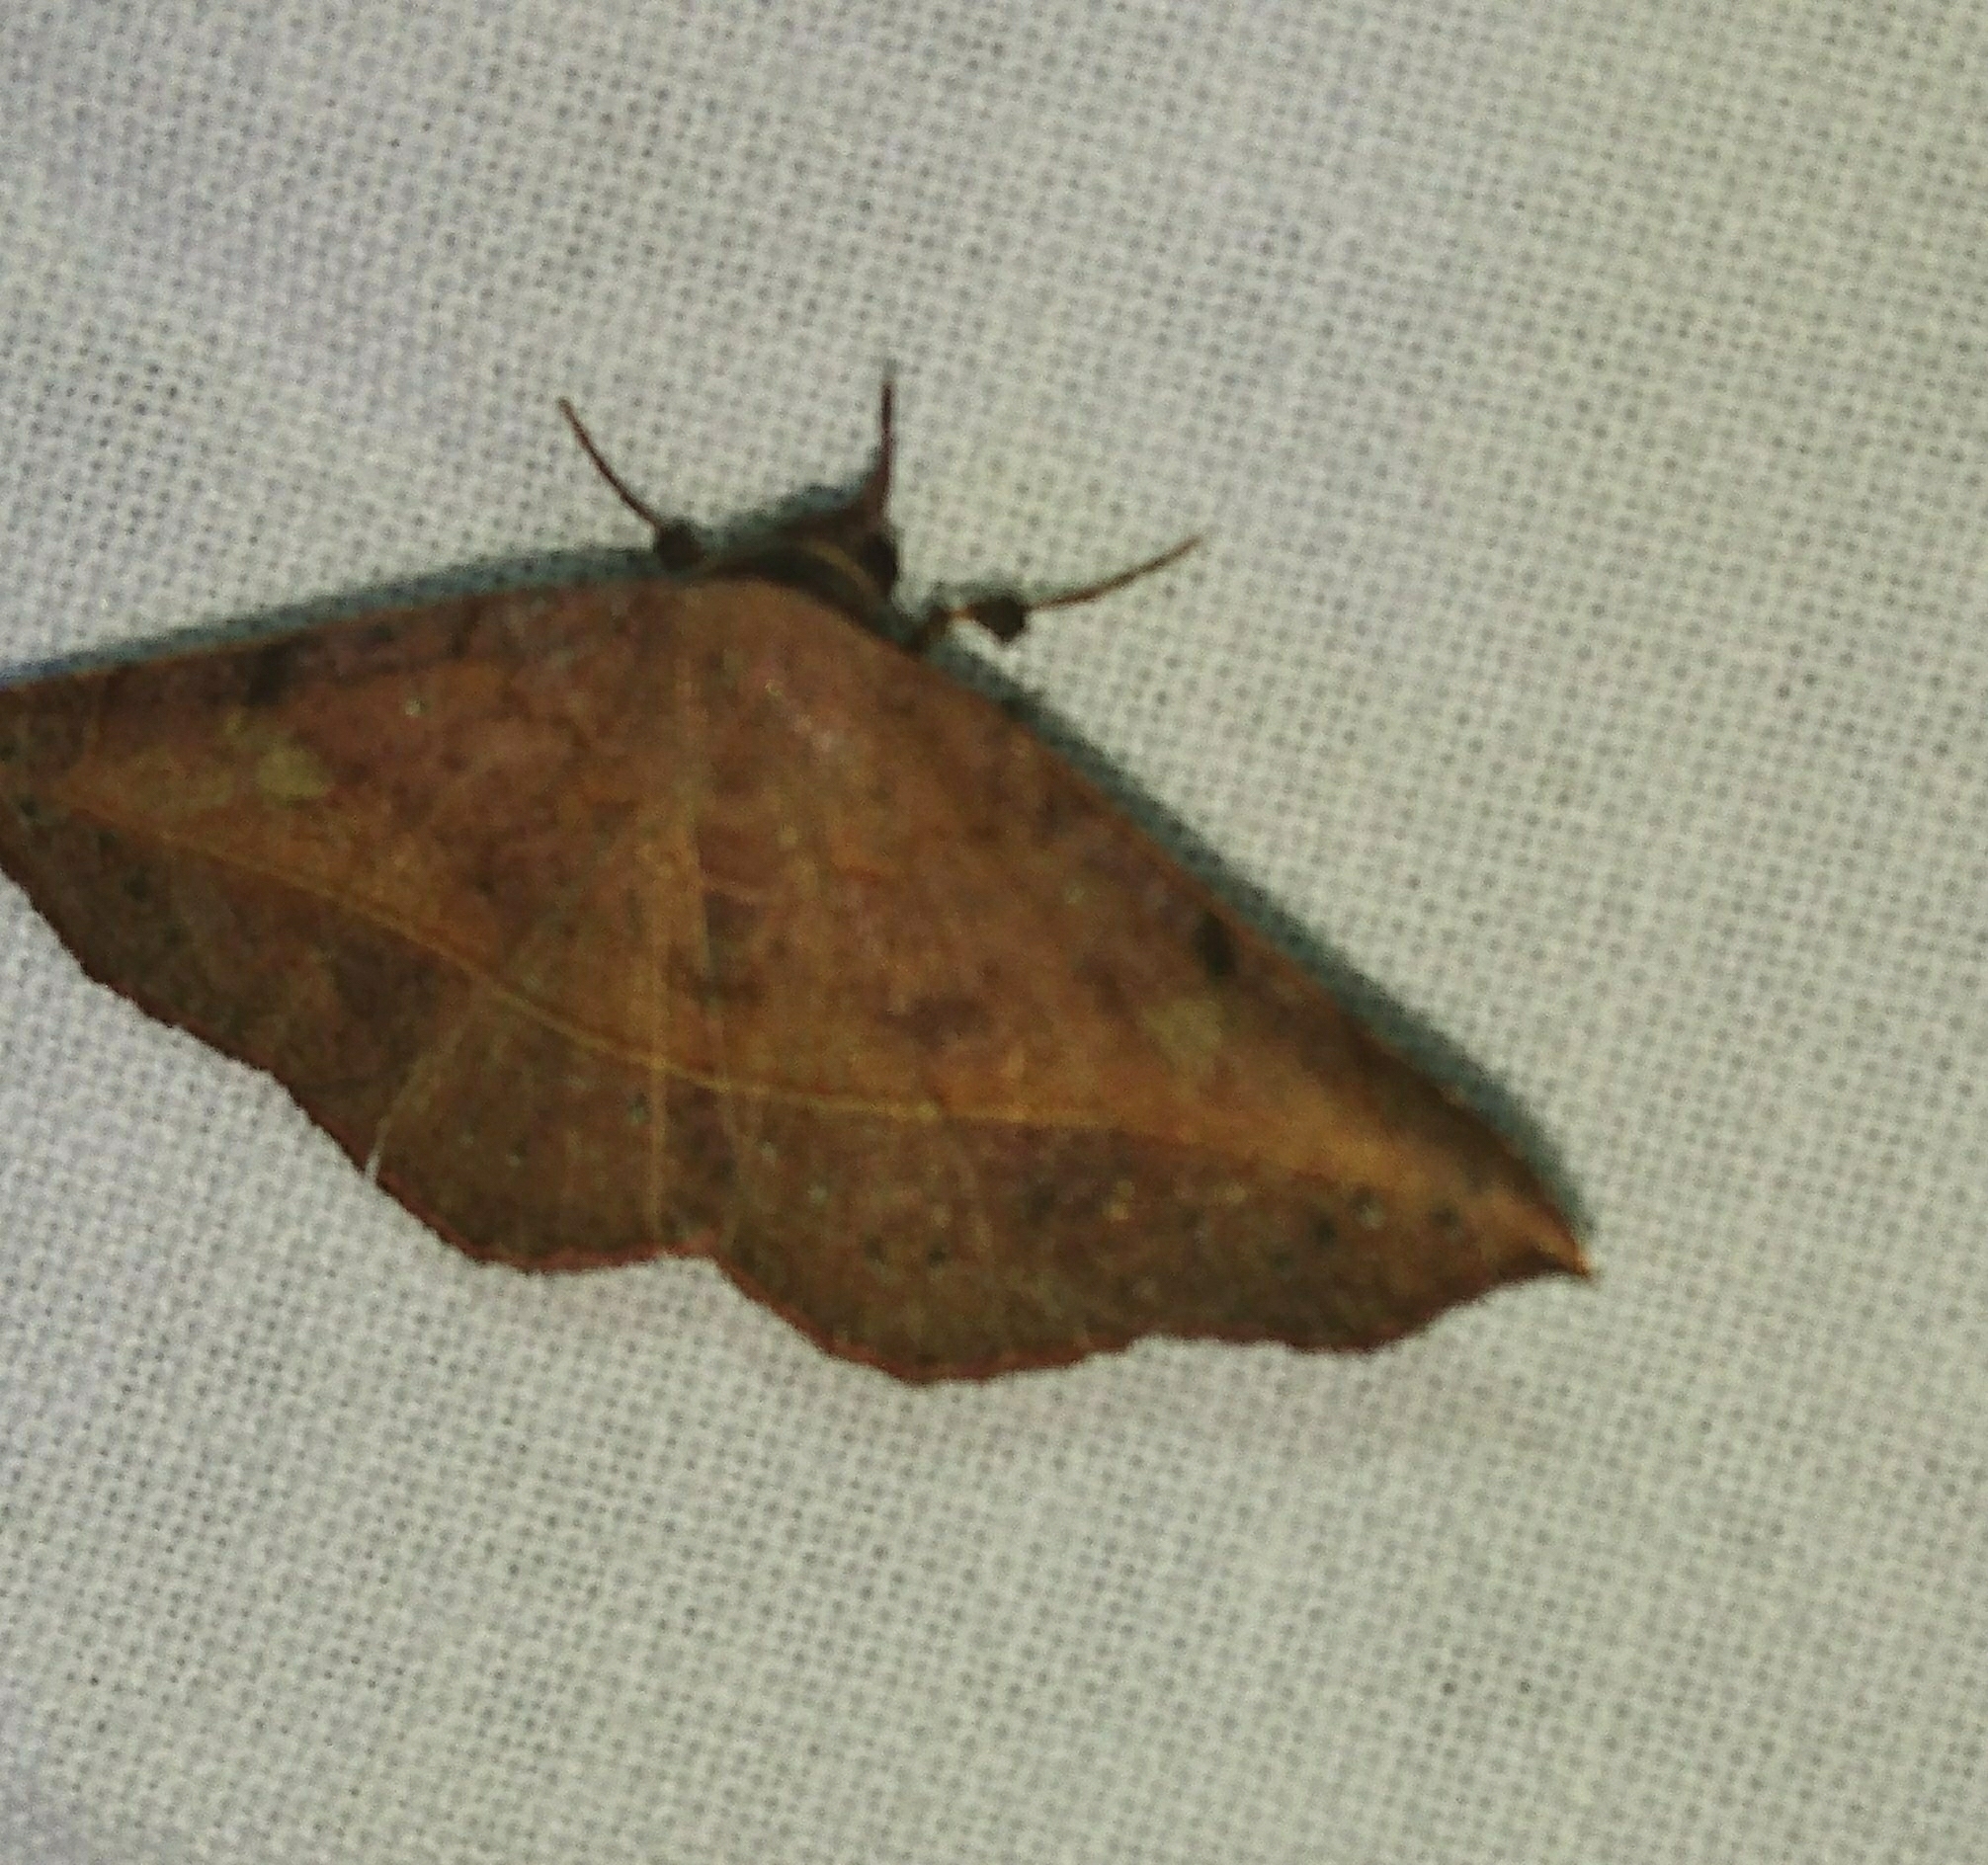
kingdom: Animalia
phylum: Arthropoda
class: Insecta
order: Lepidoptera
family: Erebidae
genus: Metallata
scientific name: Metallata absumens
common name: Brown leaf mimic
